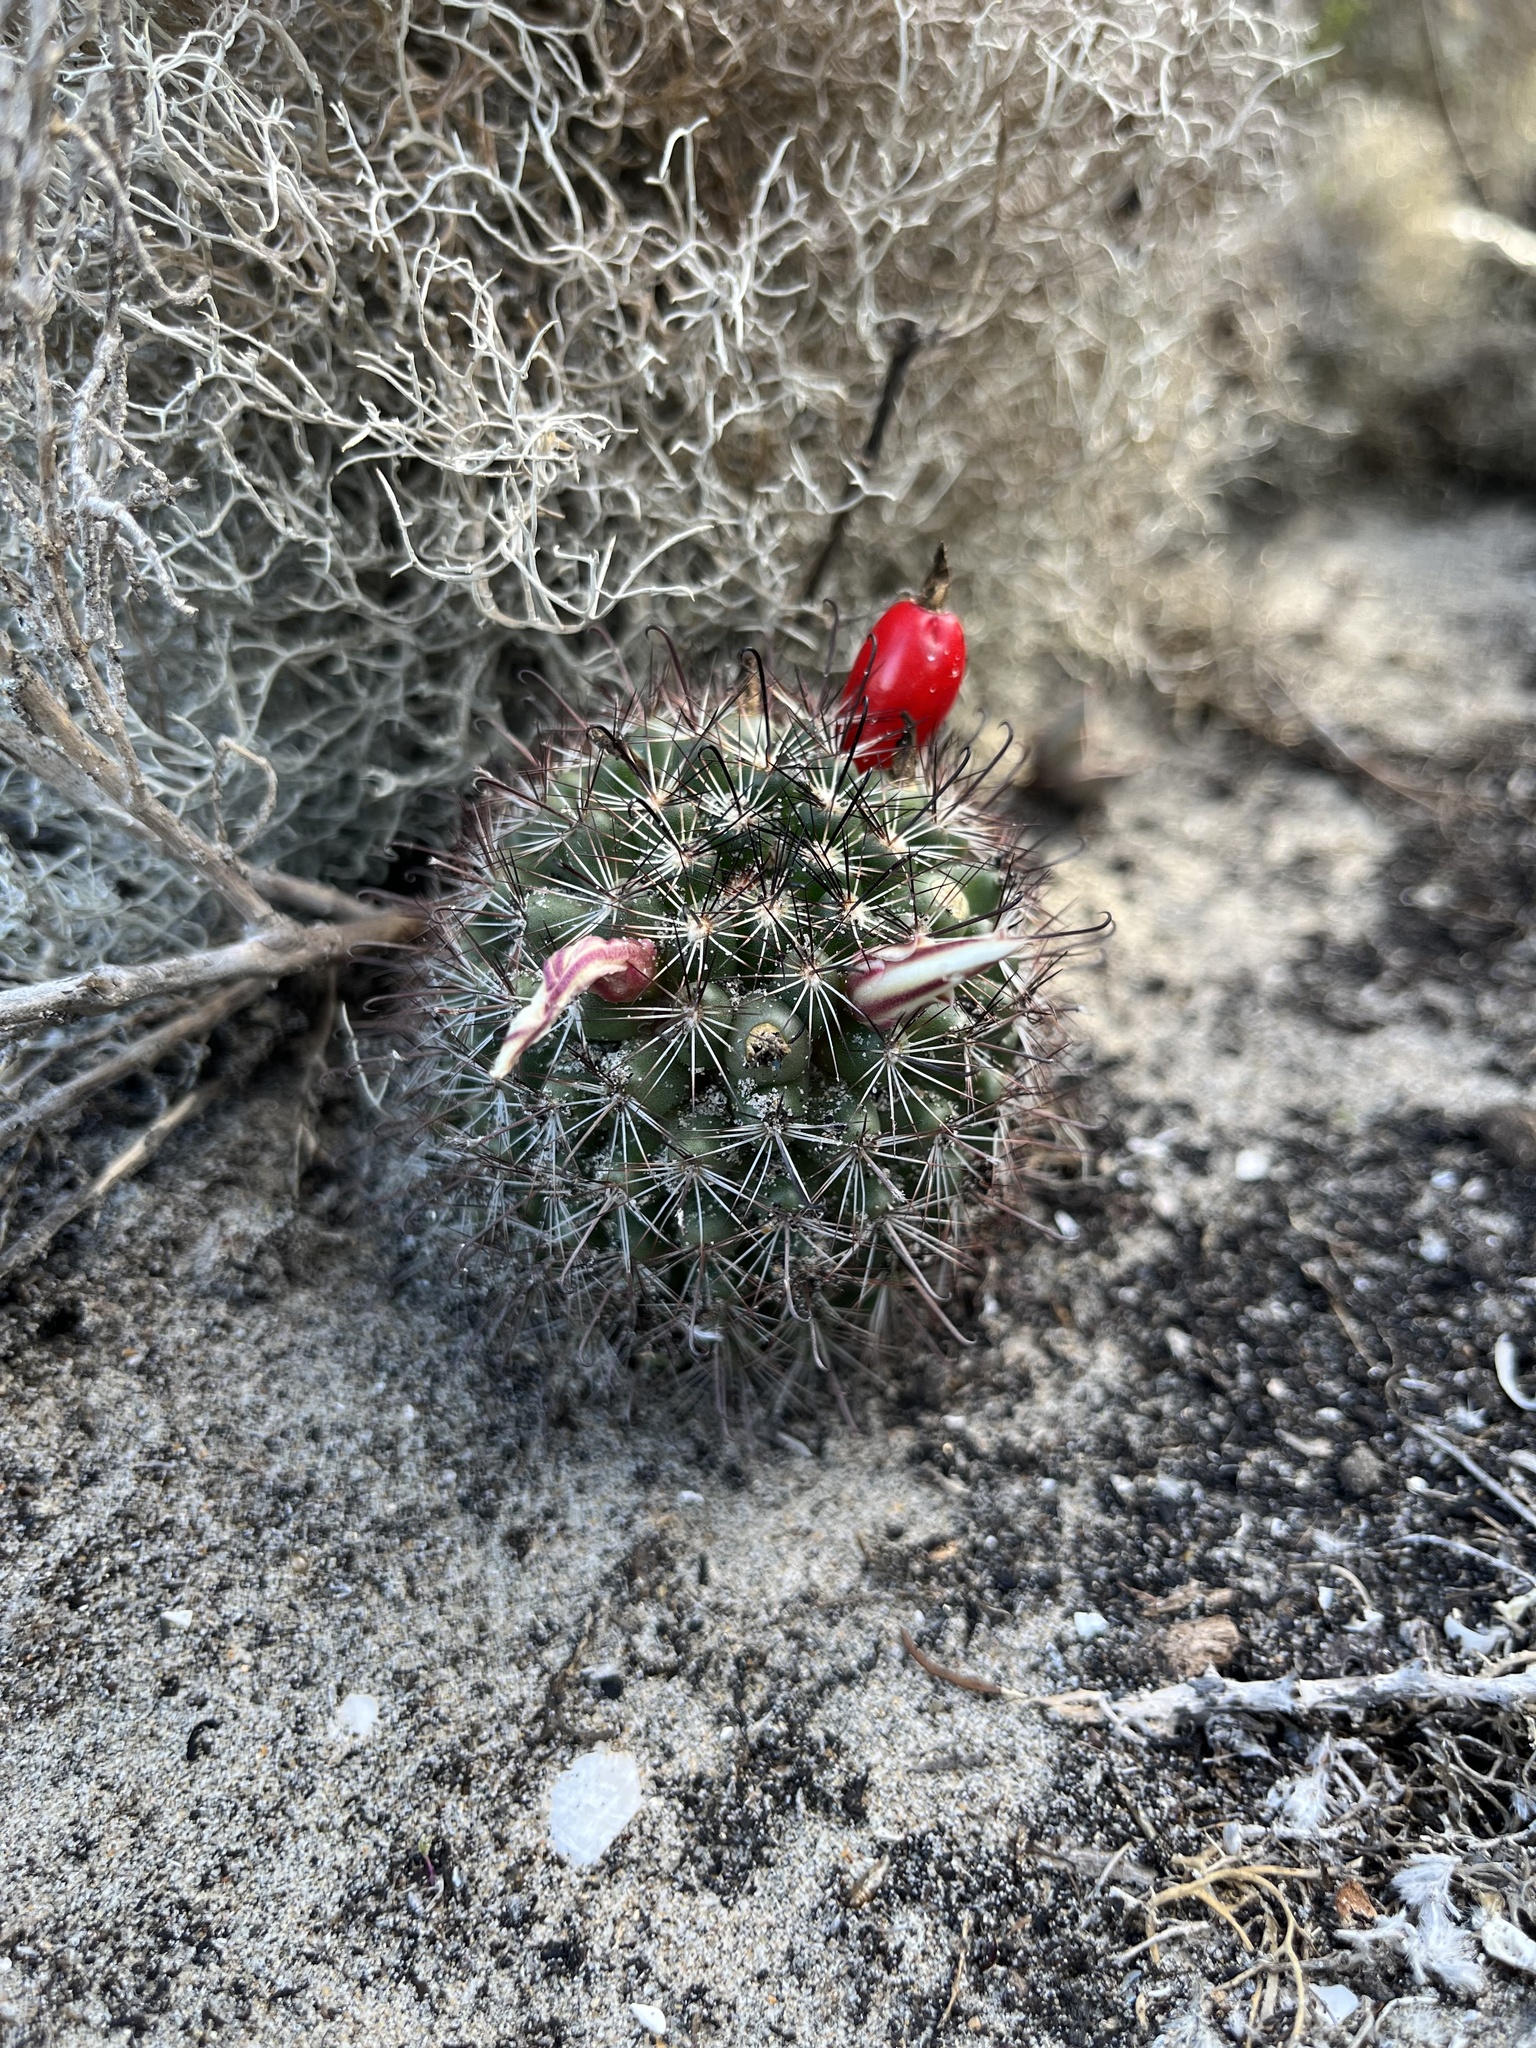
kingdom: Plantae
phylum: Tracheophyta
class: Magnoliopsida
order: Caryophyllales
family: Cactaceae
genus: Cochemiea
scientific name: Cochemiea hutchisoniana
